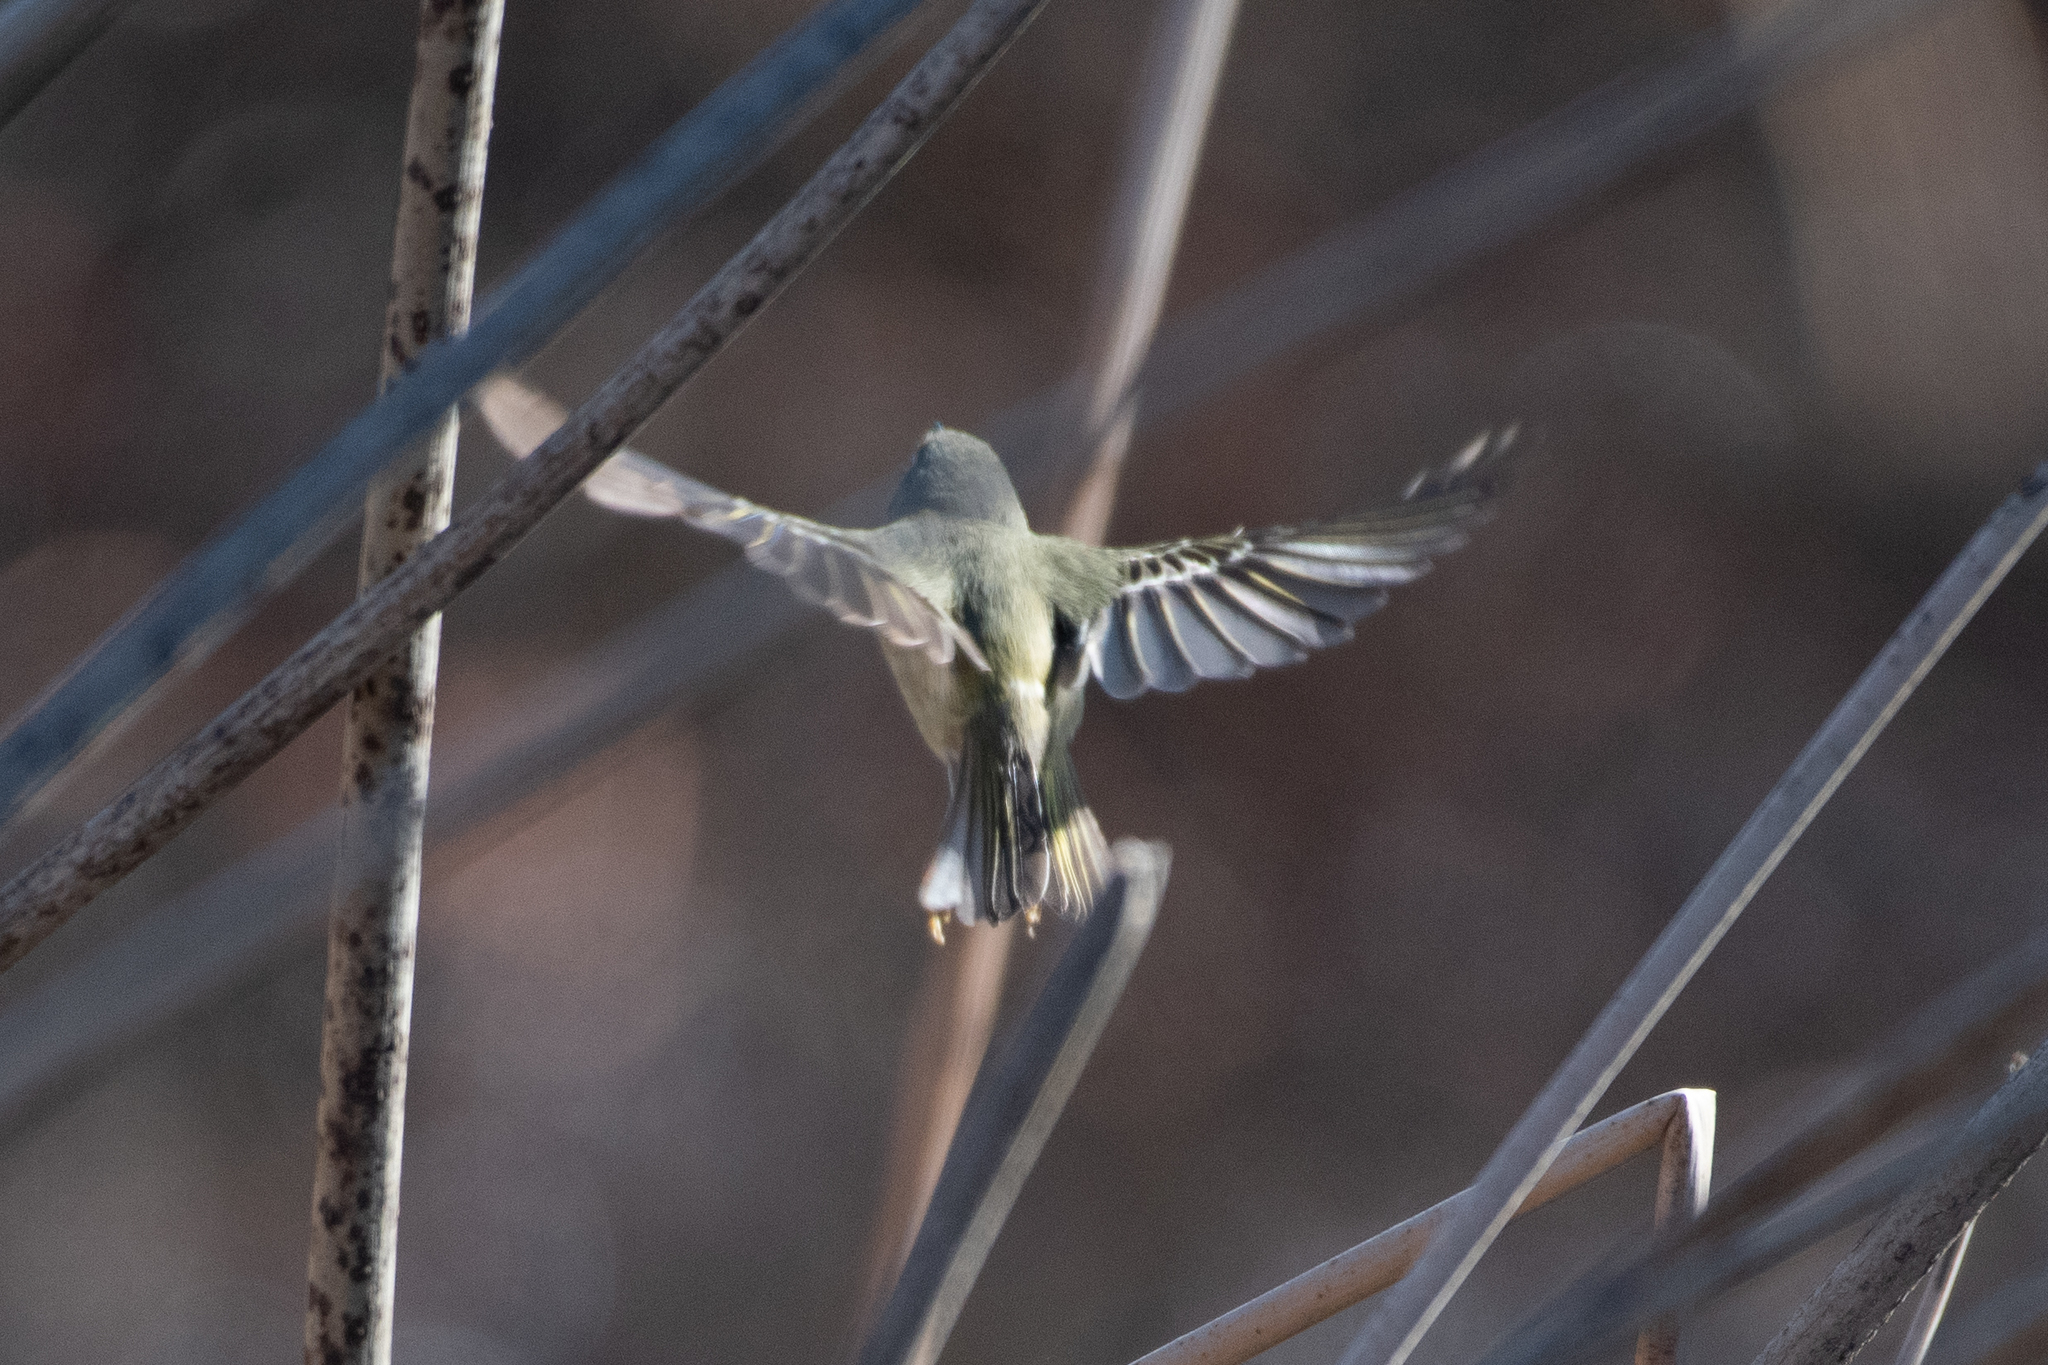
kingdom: Animalia
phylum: Chordata
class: Aves
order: Passeriformes
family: Regulidae
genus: Regulus
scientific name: Regulus calendula
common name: Ruby-crowned kinglet
